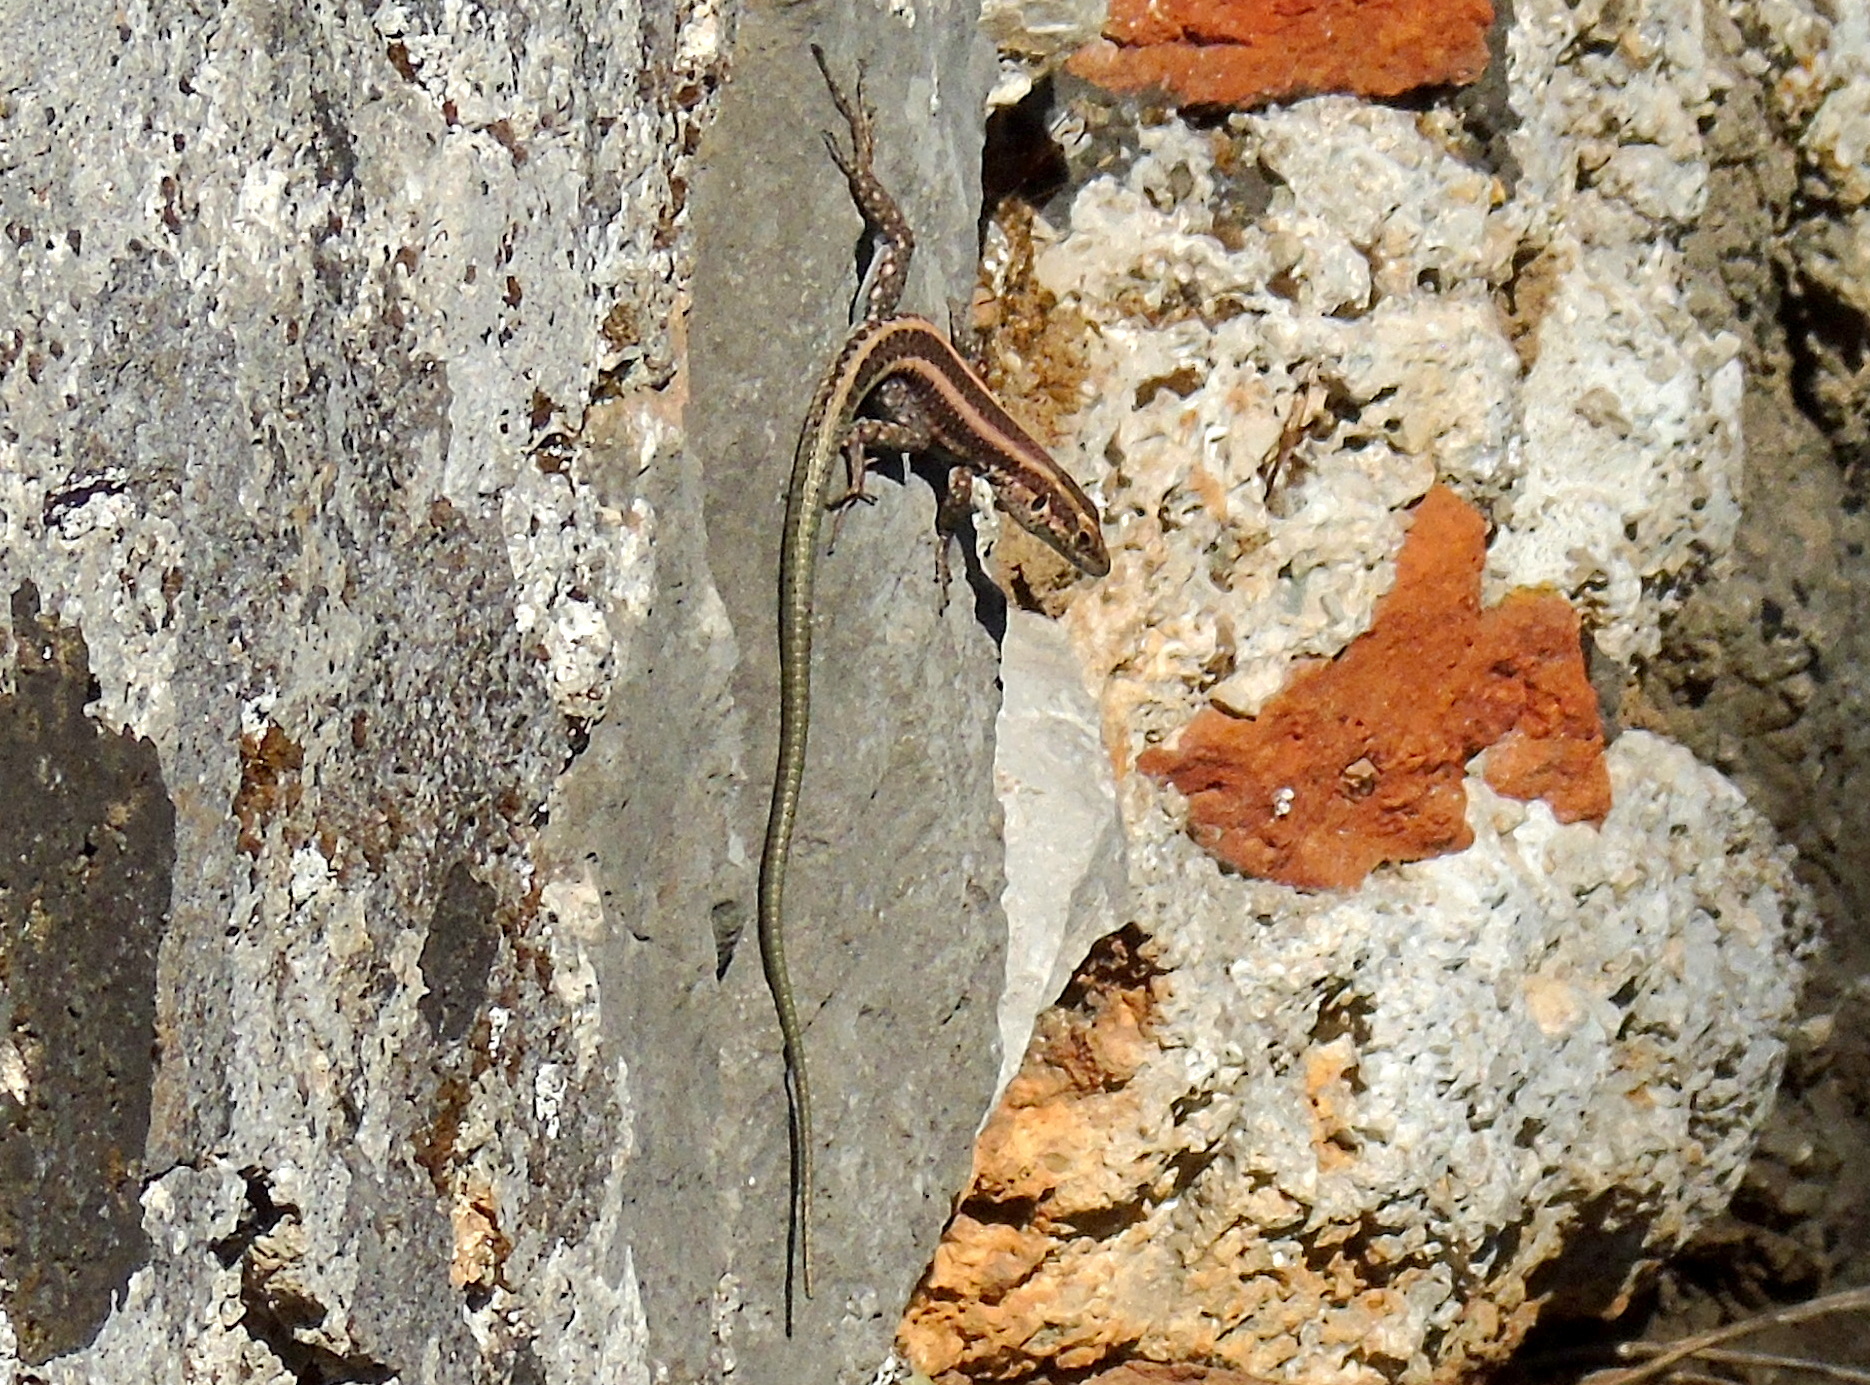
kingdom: Animalia
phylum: Chordata
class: Squamata
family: Lacertidae
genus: Anatololacerta
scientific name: Anatololacerta ibrahimi
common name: Baran’s lizard
